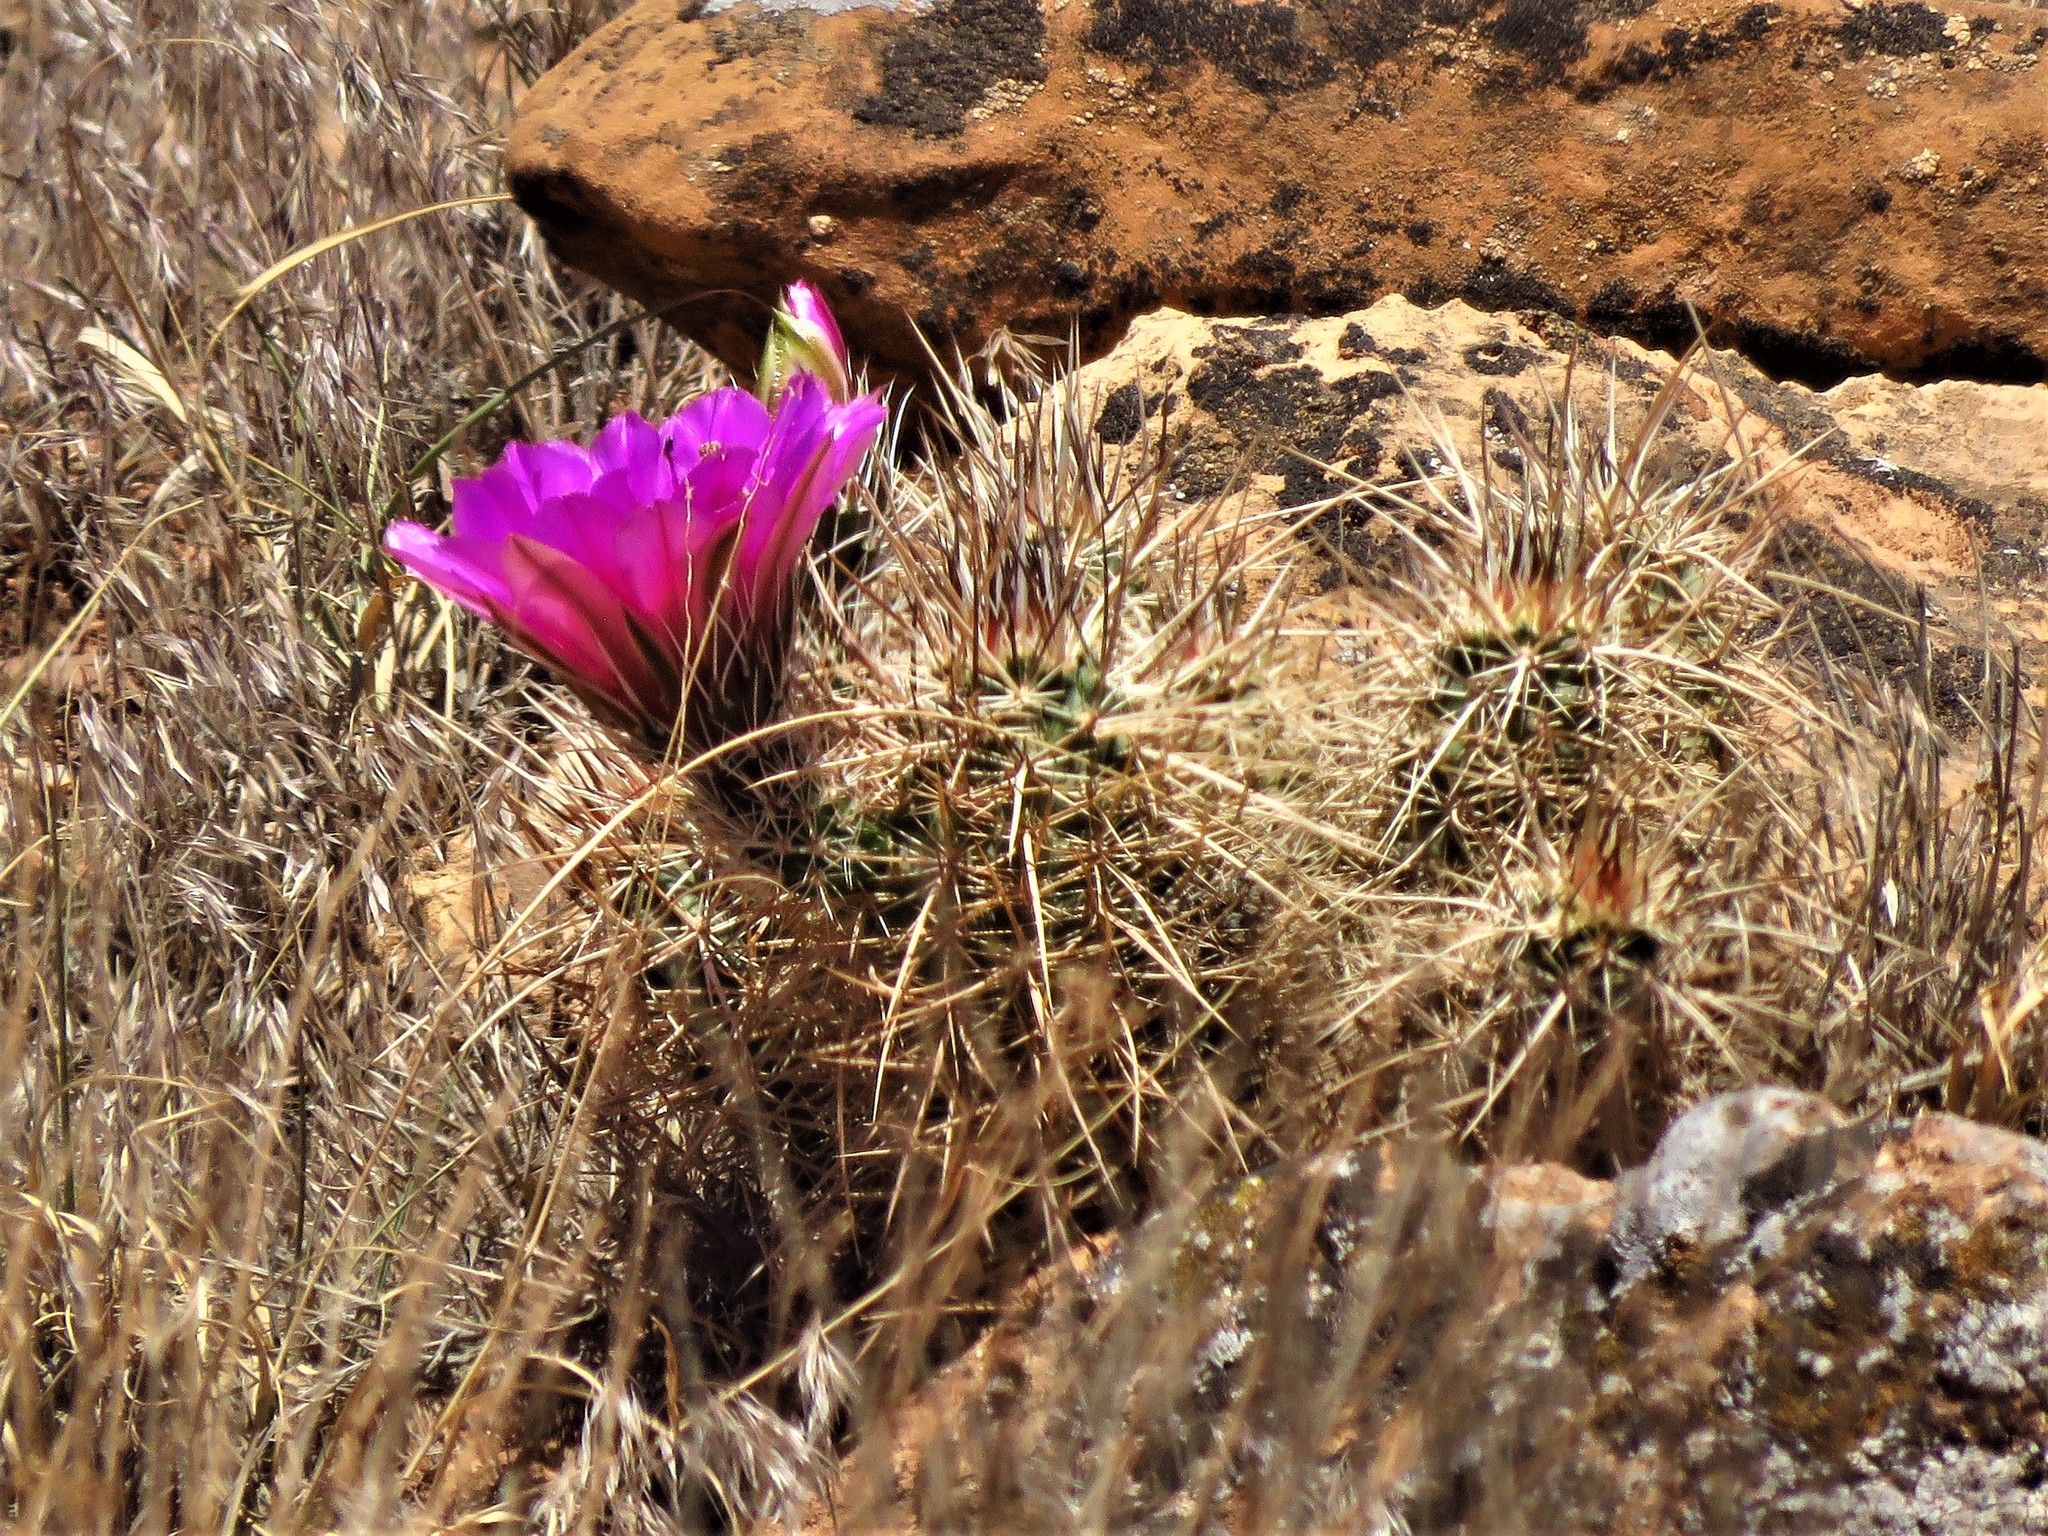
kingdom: Plantae
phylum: Tracheophyta
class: Magnoliopsida
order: Caryophyllales
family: Cactaceae
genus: Echinocereus
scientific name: Echinocereus engelmannii
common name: Engelmann's hedgehog cactus
